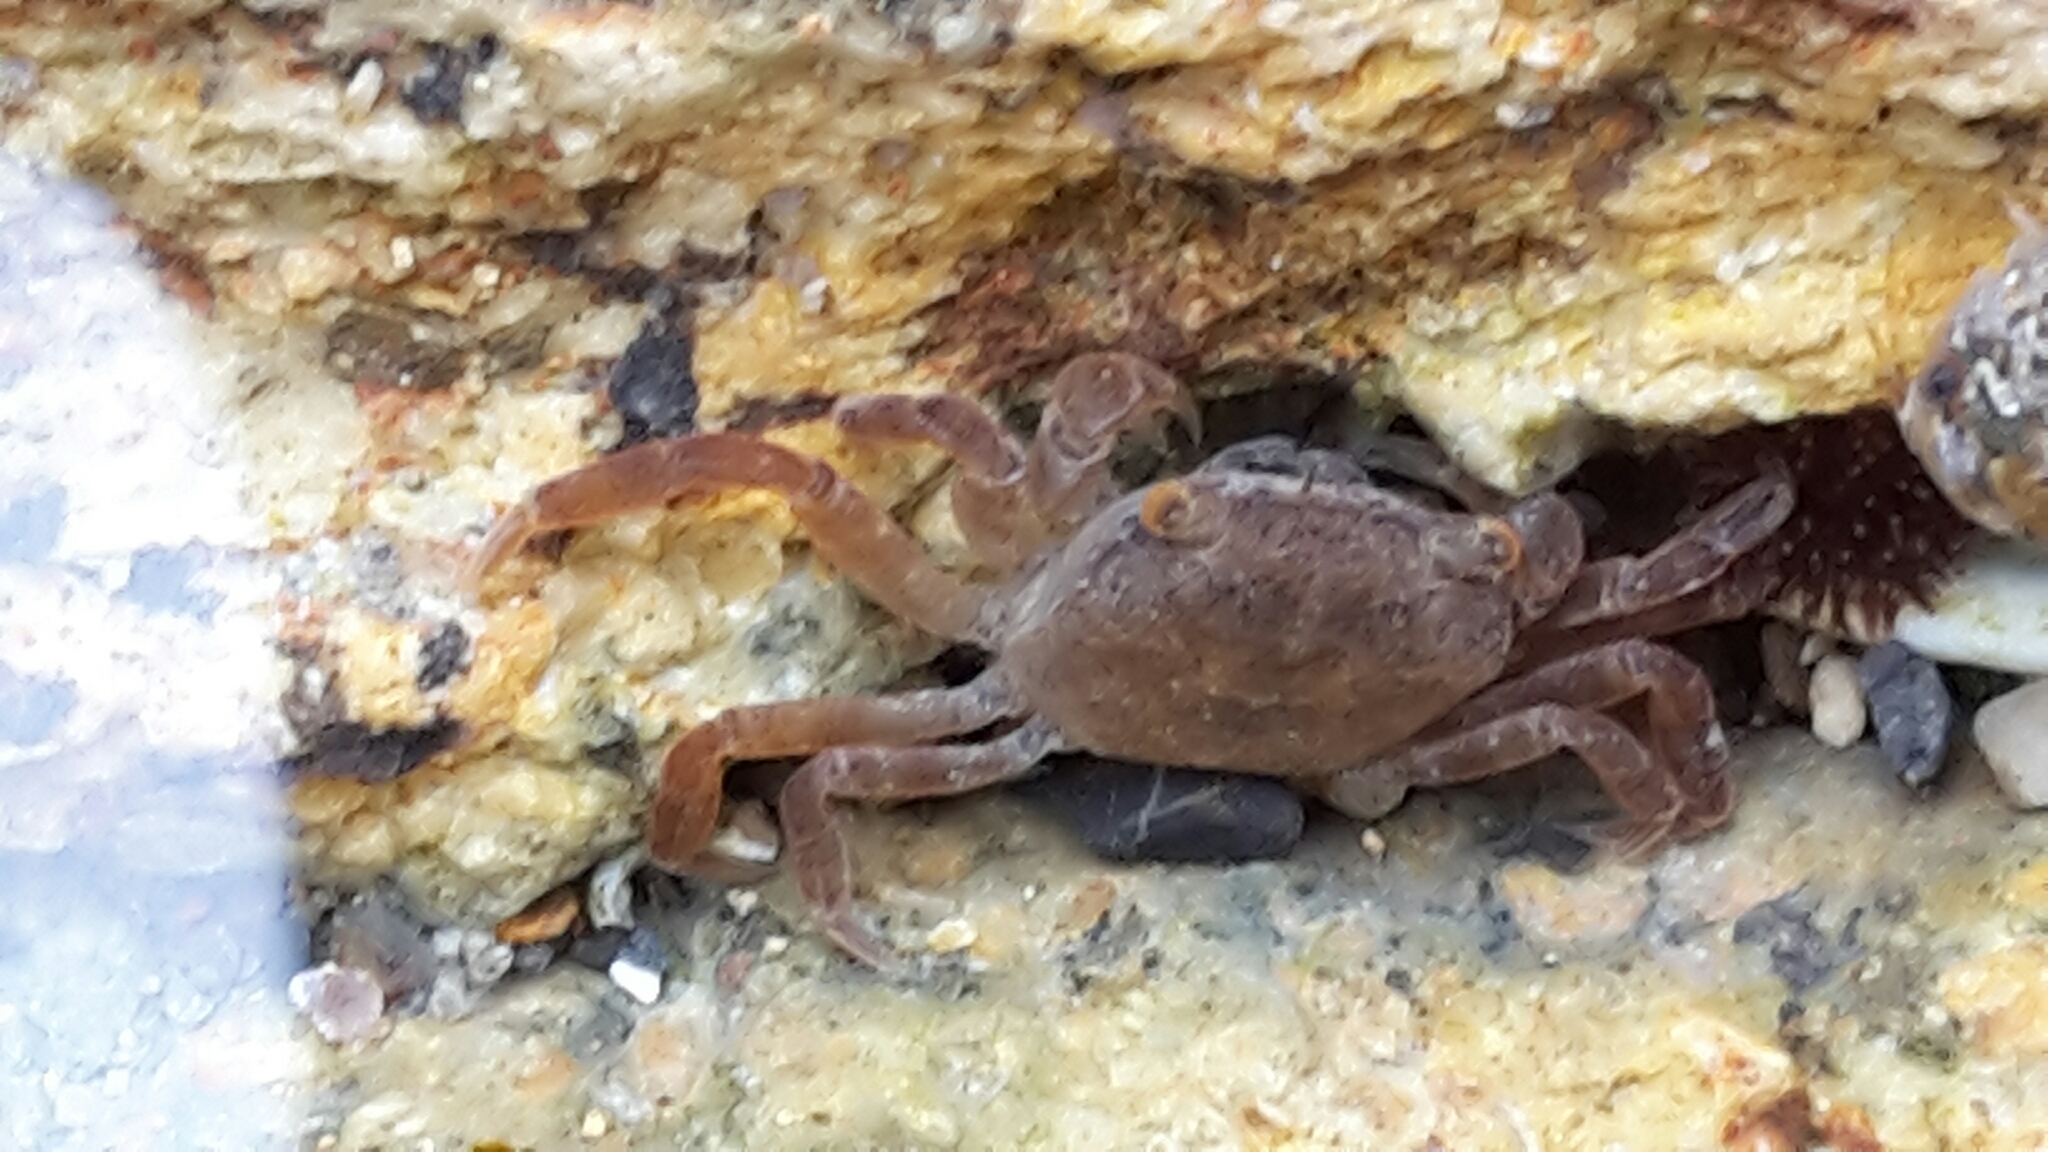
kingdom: Animalia
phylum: Arthropoda
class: Malacostraca
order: Decapoda
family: Varunidae
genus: Cyclograpsus
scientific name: Cyclograpsus lavauxi
